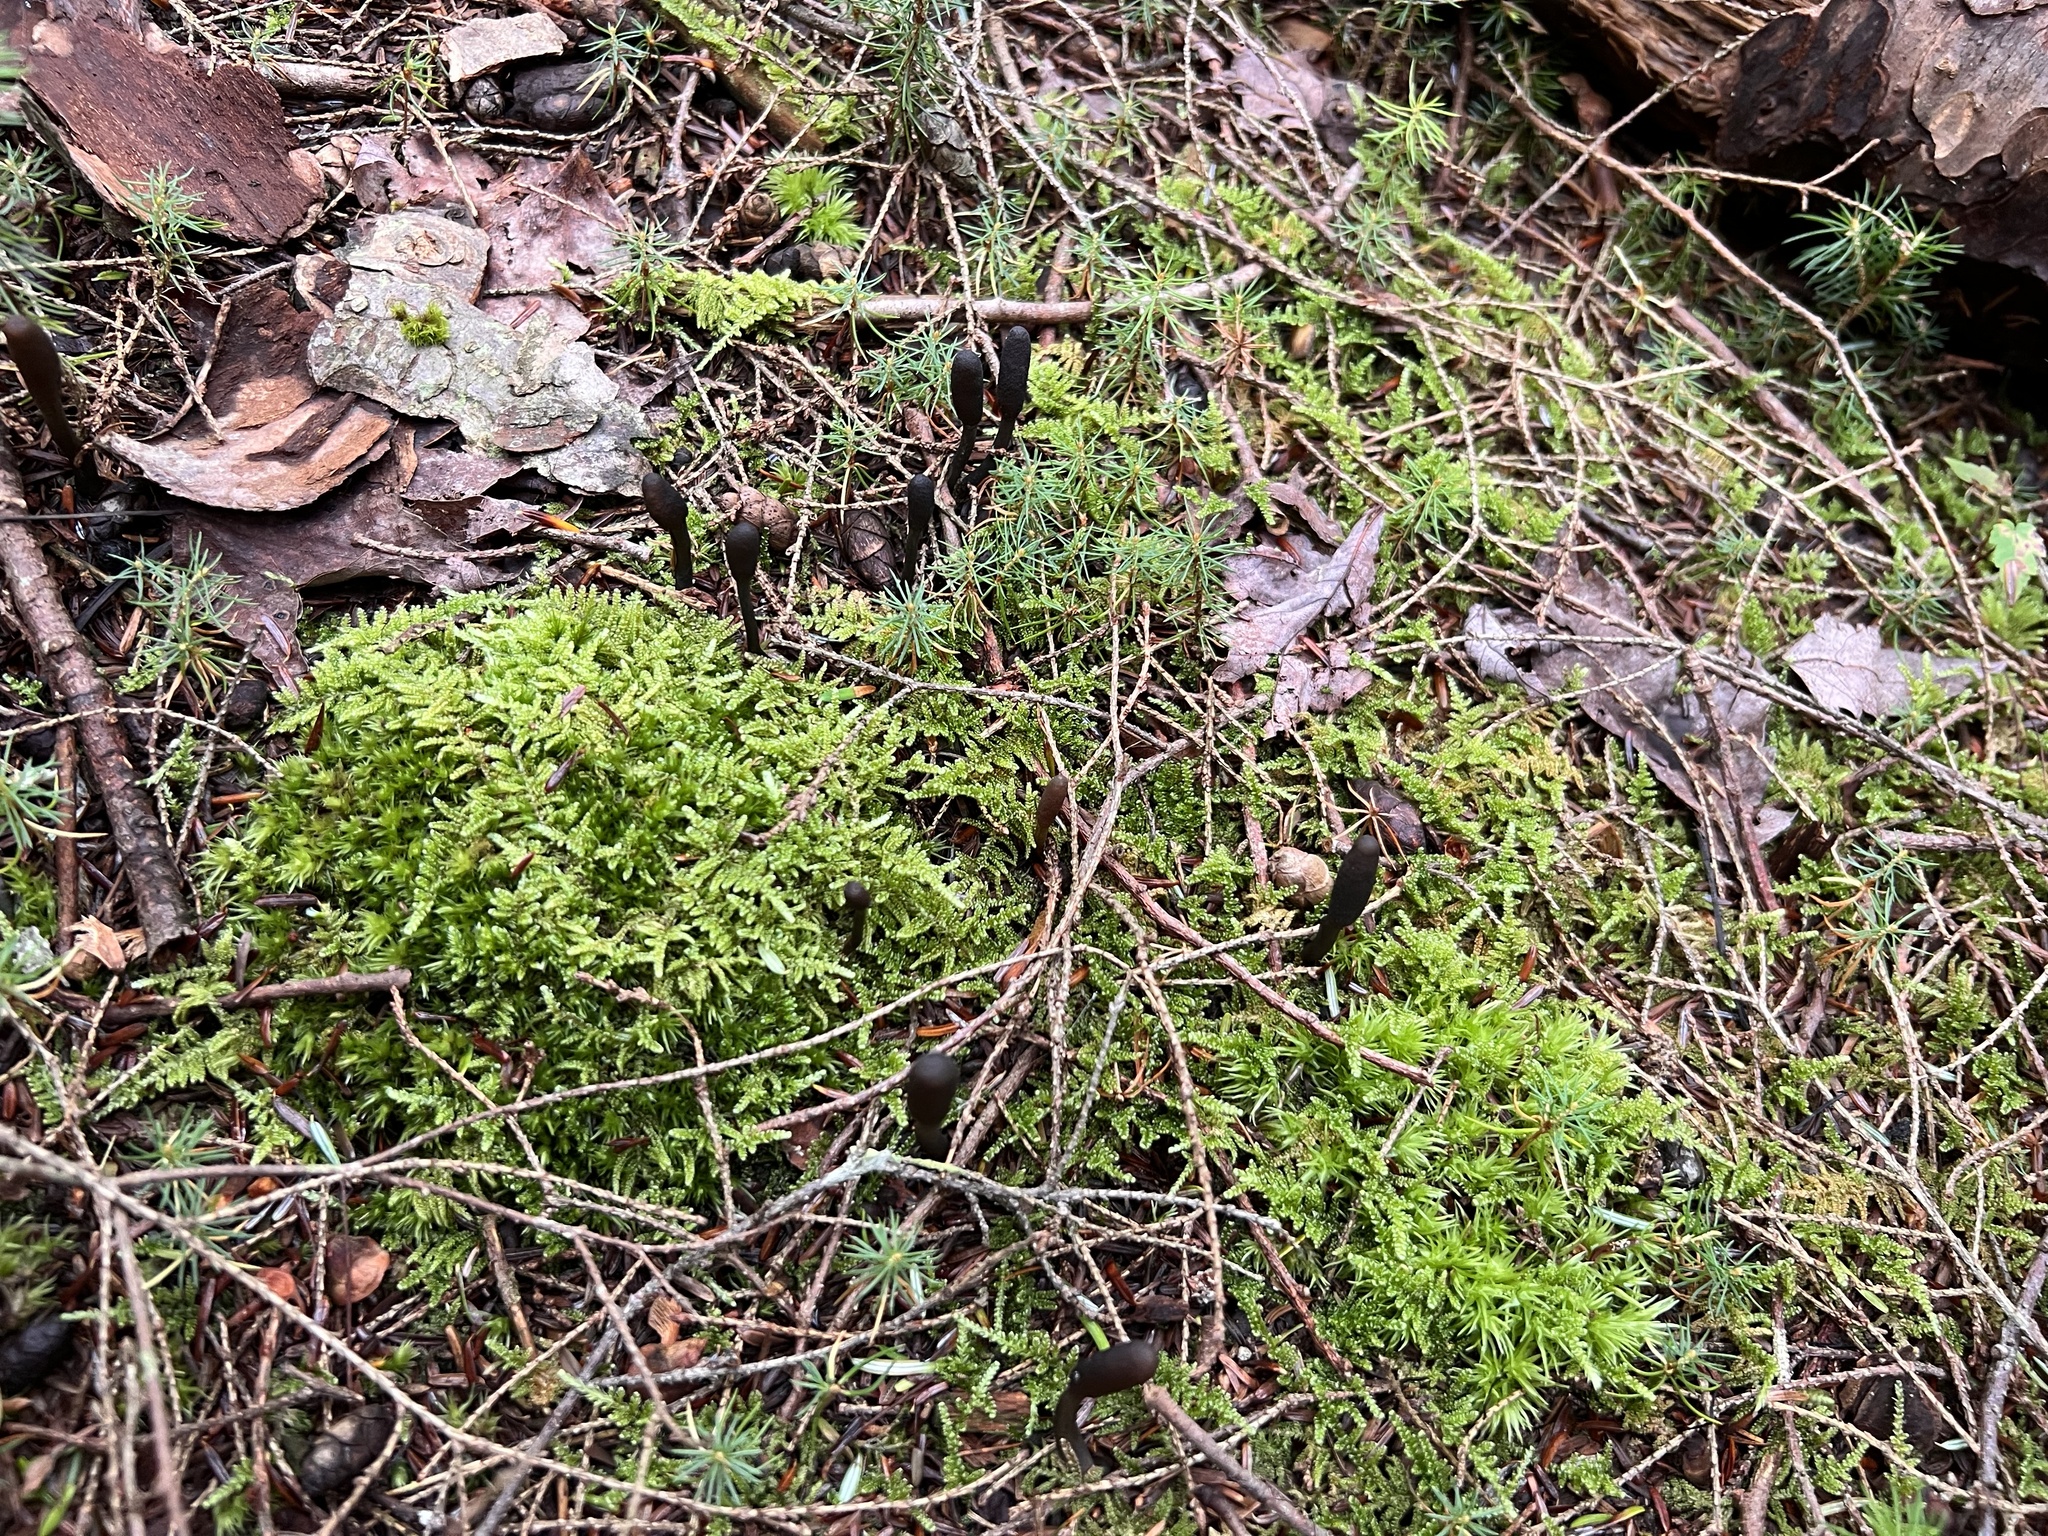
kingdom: Fungi
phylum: Ascomycota
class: Sordariomycetes
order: Hypocreales
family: Ophiocordycipitaceae
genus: Tolypocladium
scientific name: Tolypocladium ophioglossoides
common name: Snaketongue truffleclub
